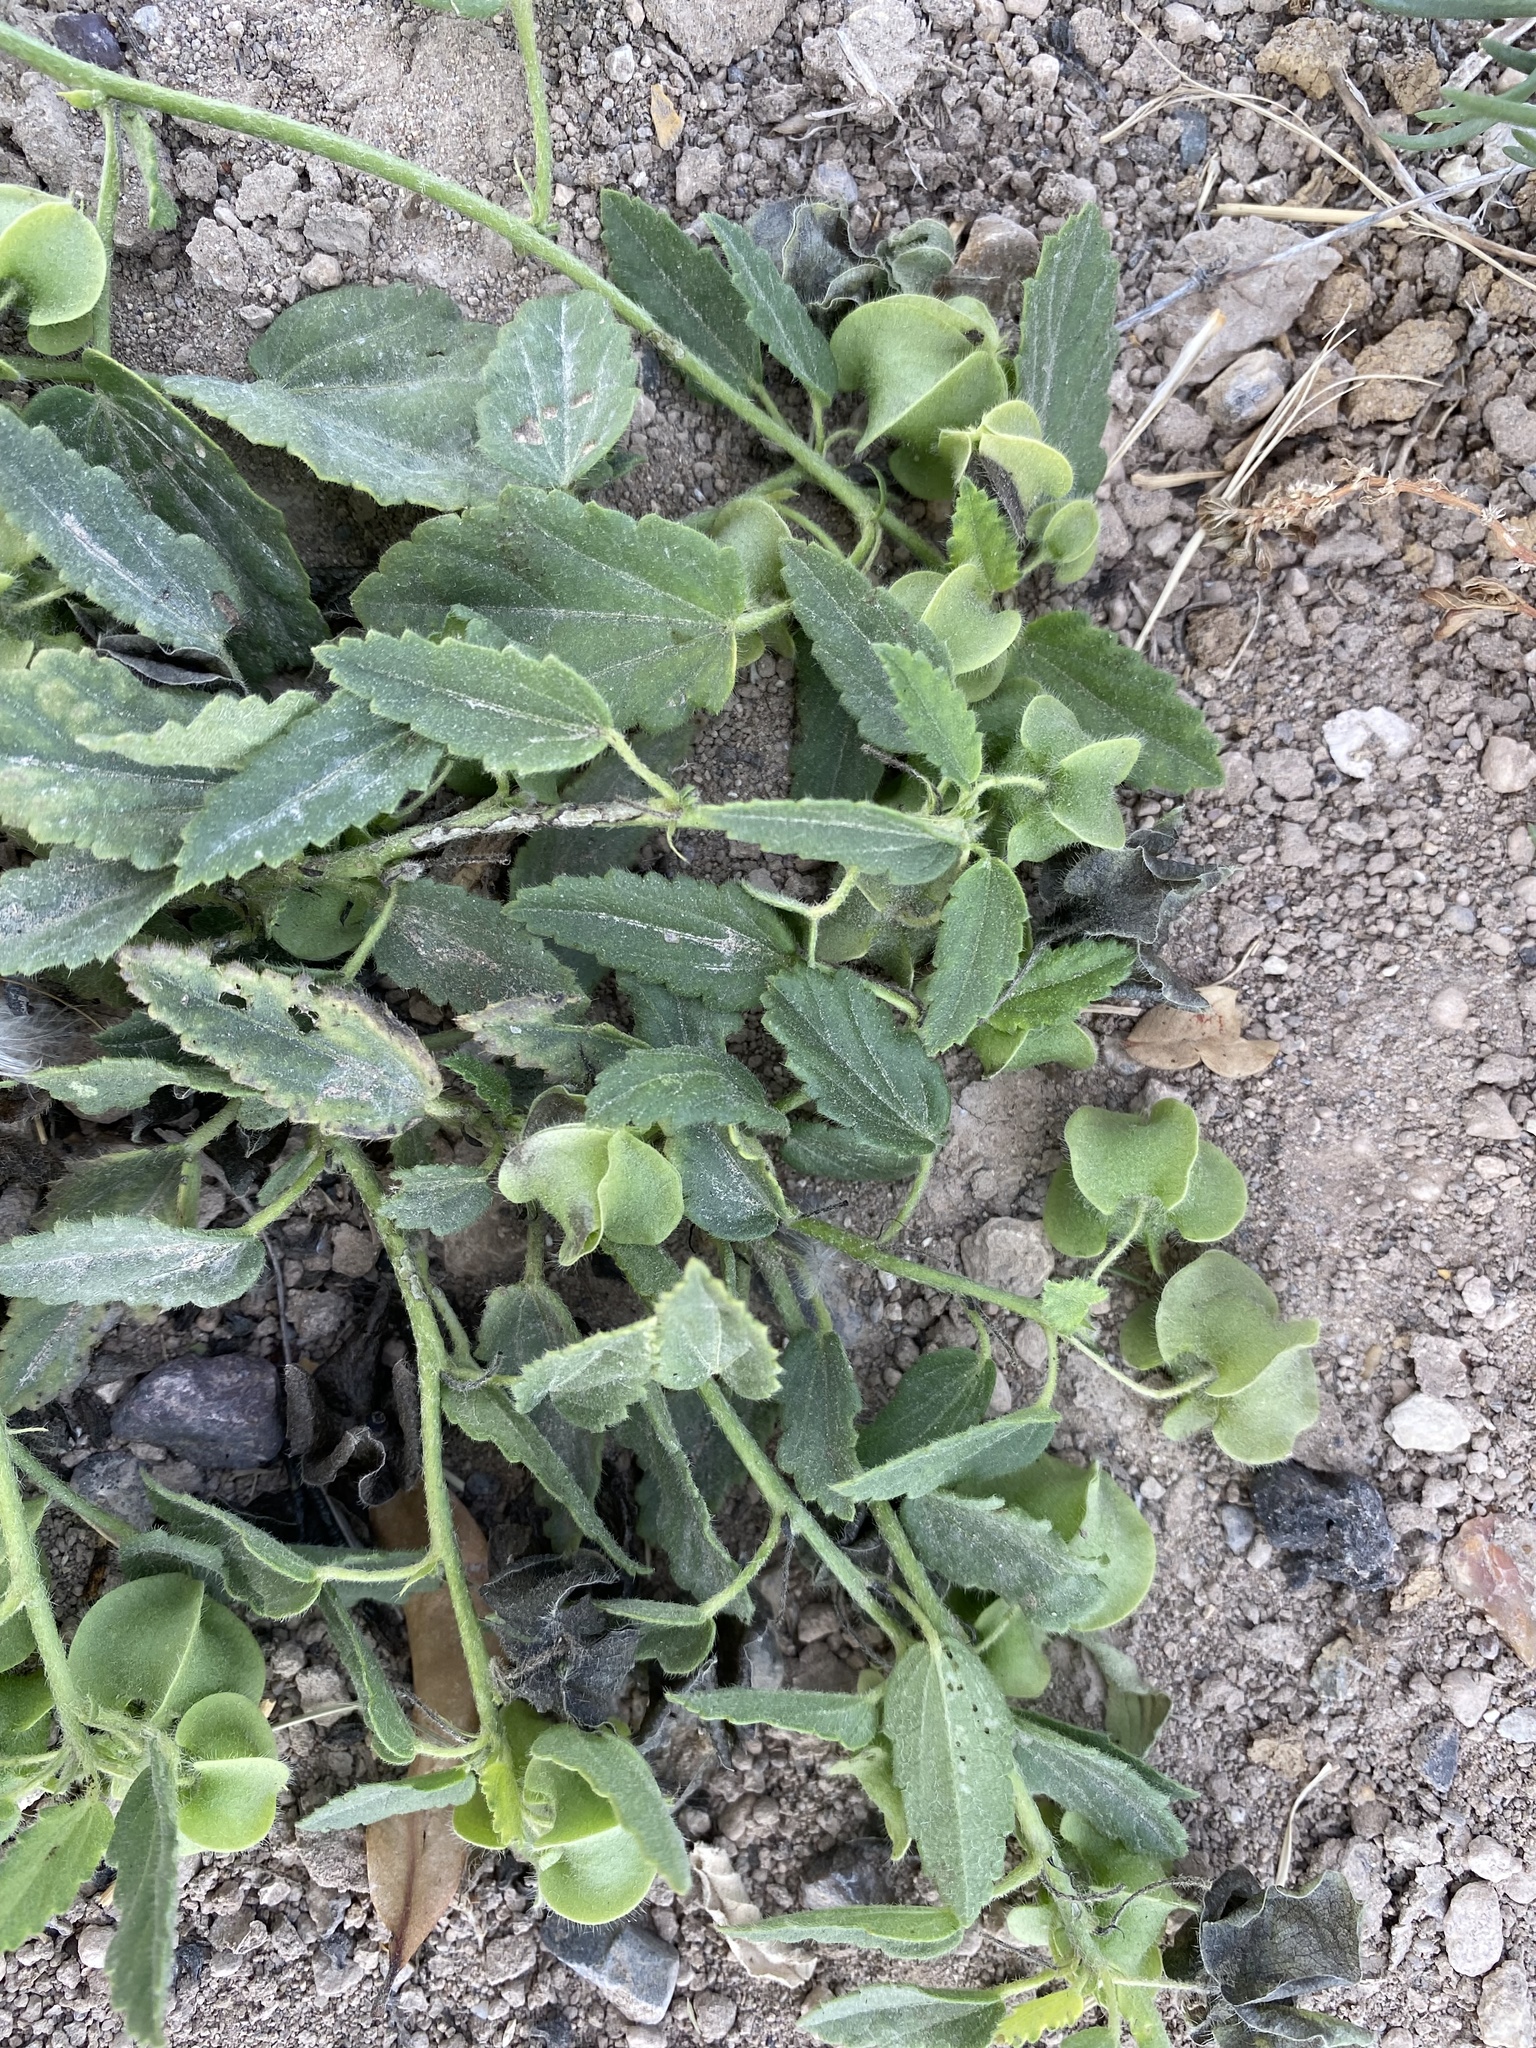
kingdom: Plantae
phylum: Tracheophyta
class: Magnoliopsida
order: Malvales
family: Malvaceae
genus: Rhynchosida
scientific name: Rhynchosida physocalyx
